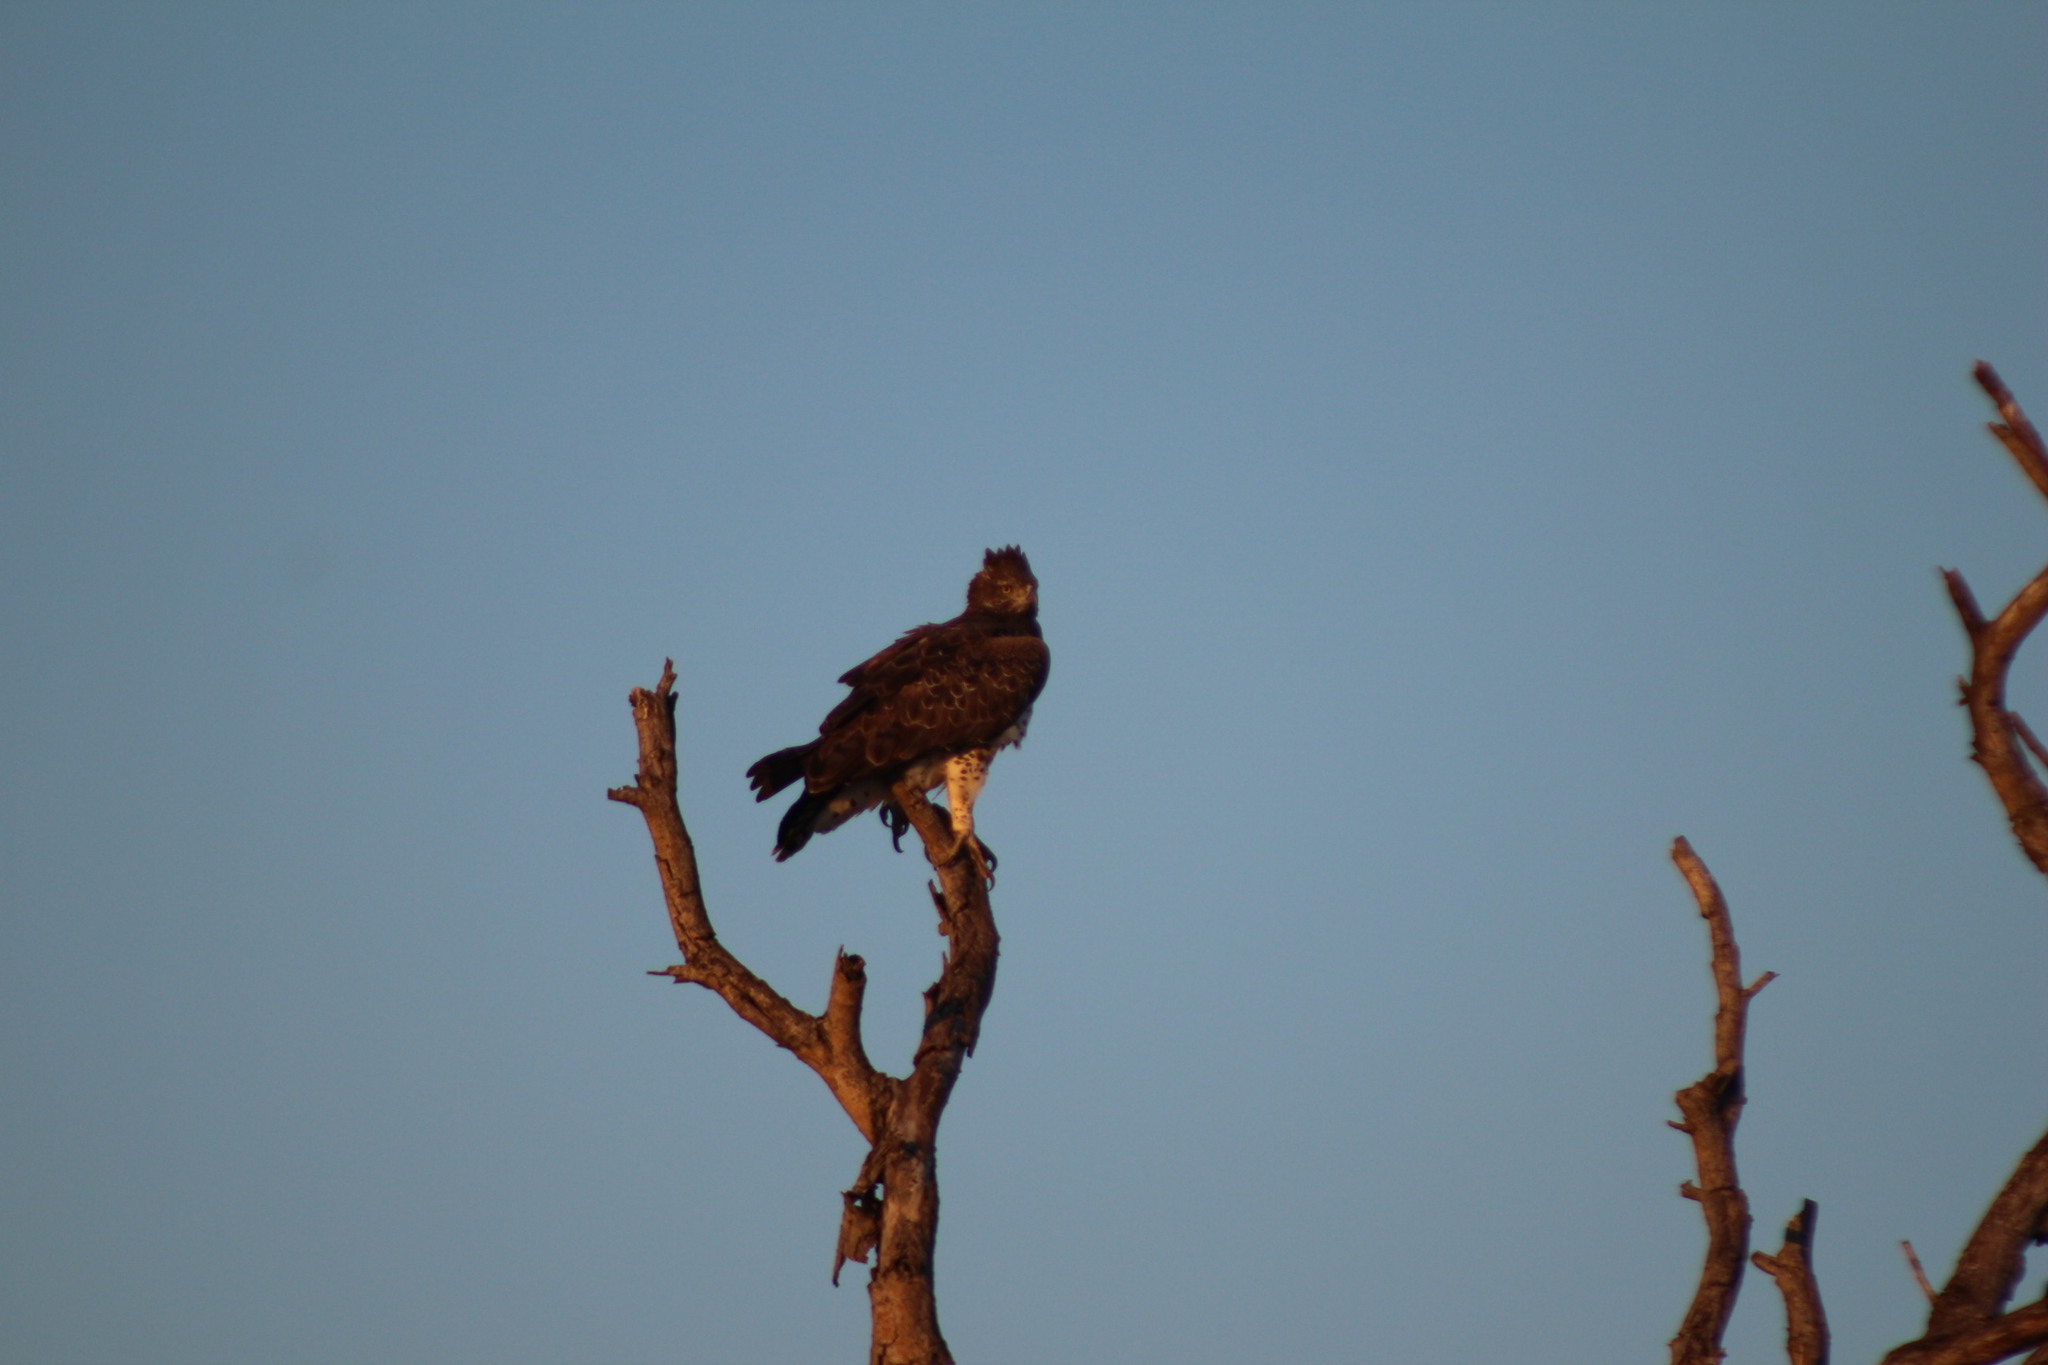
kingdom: Animalia
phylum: Chordata
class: Aves
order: Accipitriformes
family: Accipitridae
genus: Polemaetus
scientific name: Polemaetus bellicosus
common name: Martial eagle
